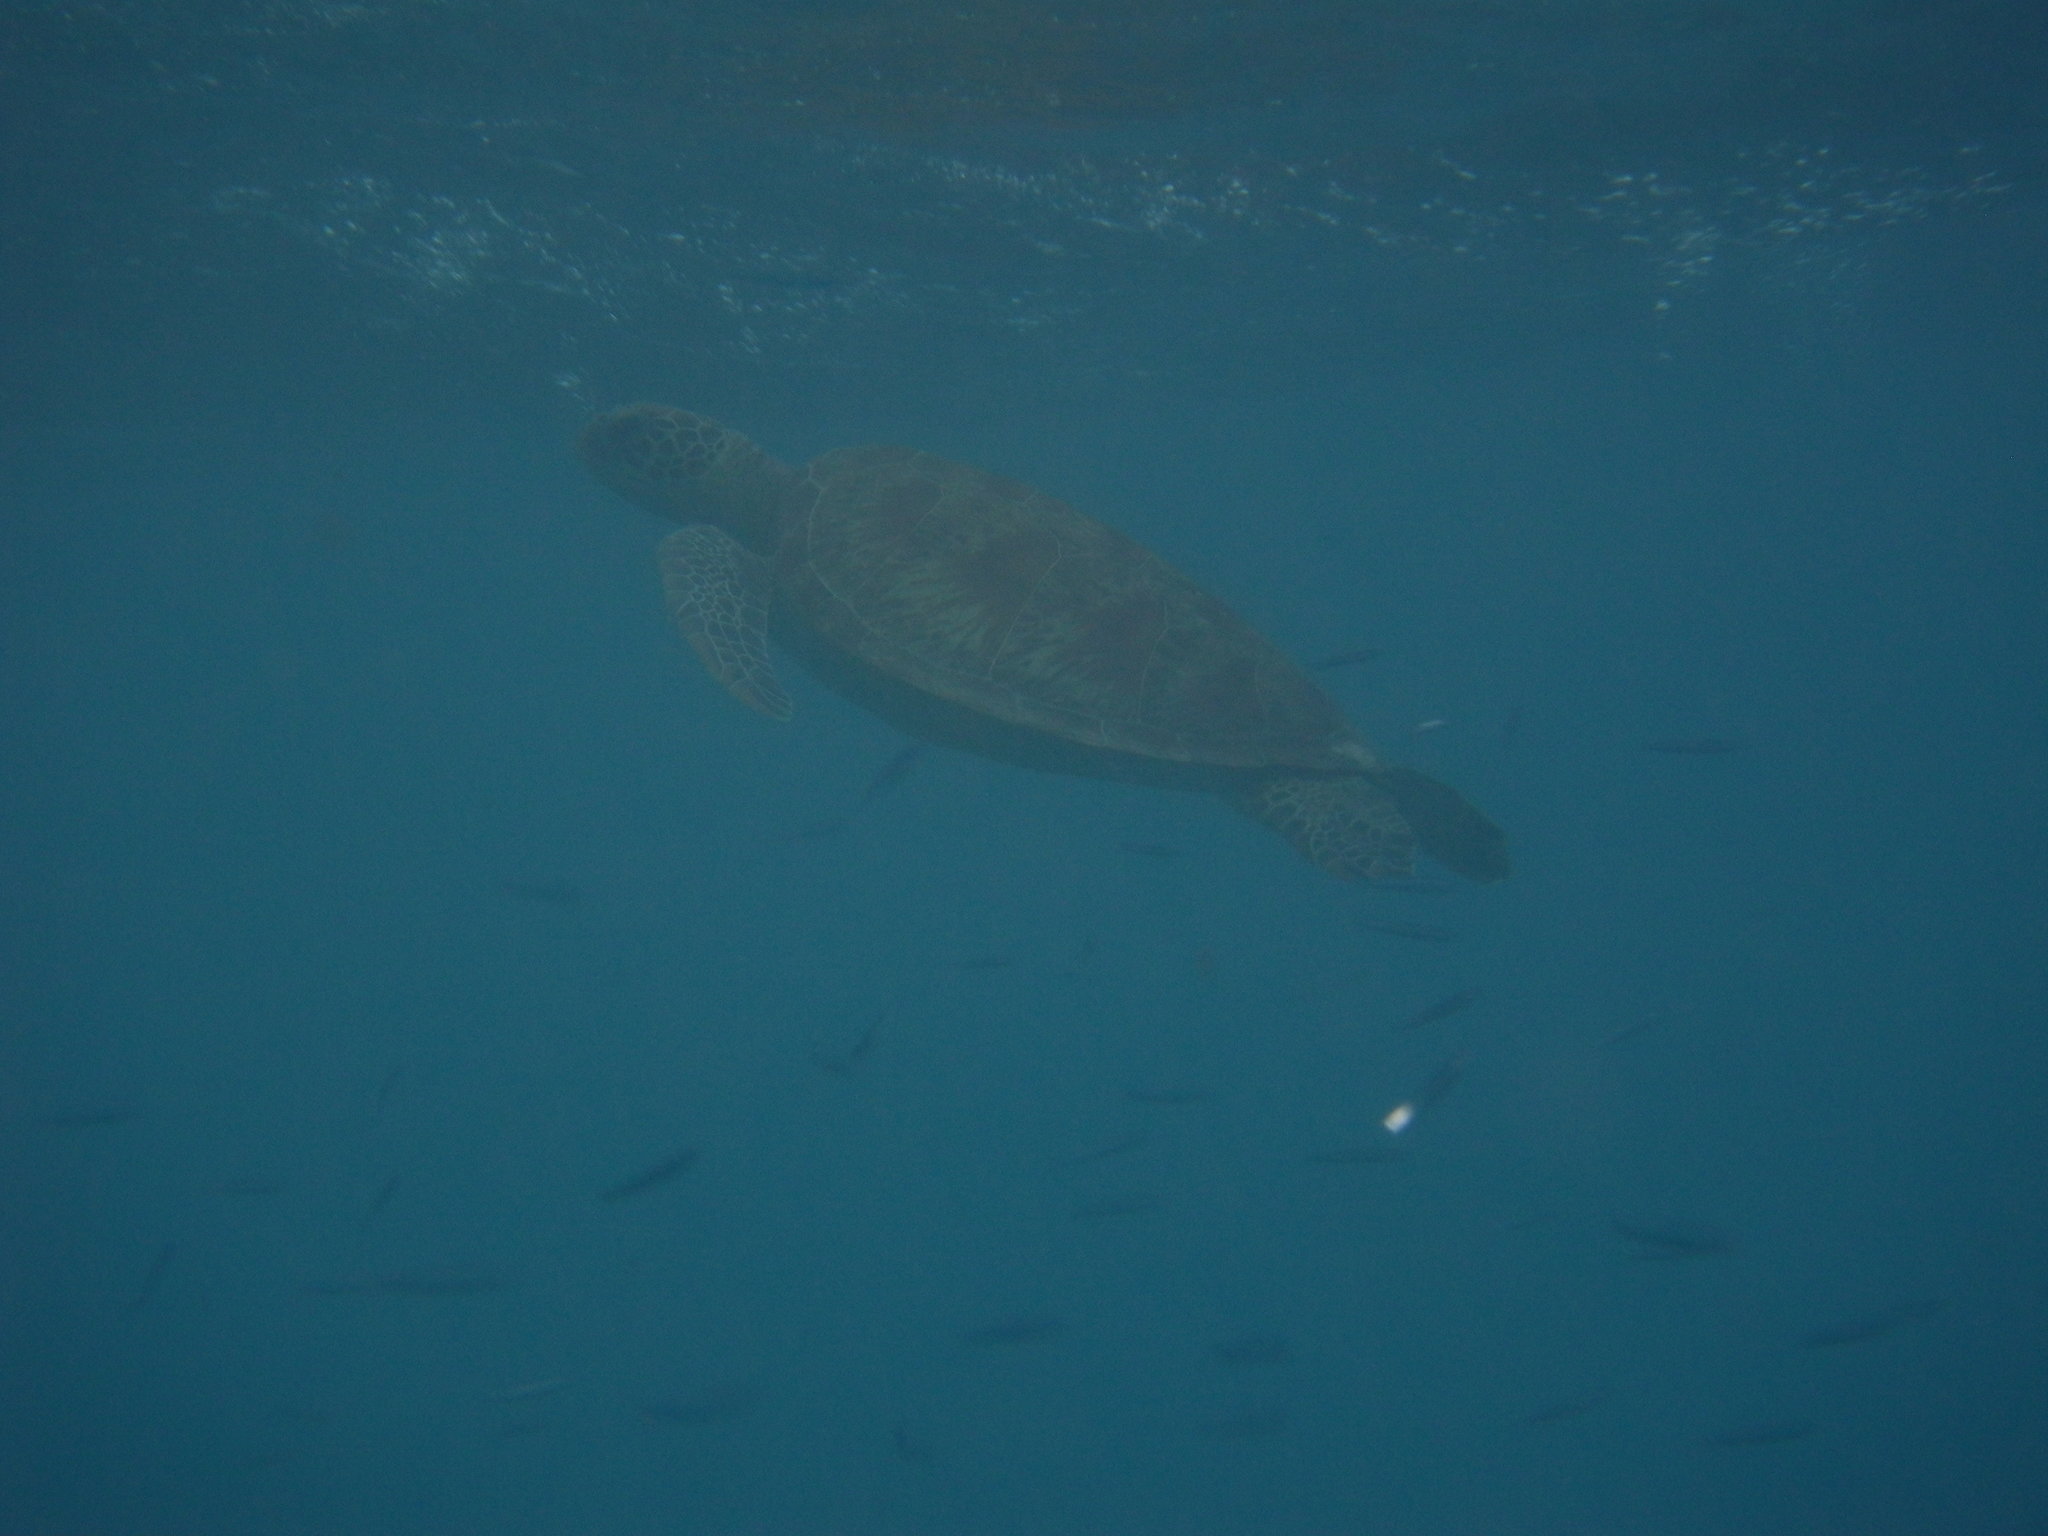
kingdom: Animalia
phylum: Chordata
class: Testudines
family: Cheloniidae
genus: Chelonia
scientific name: Chelonia mydas
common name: Green turtle
